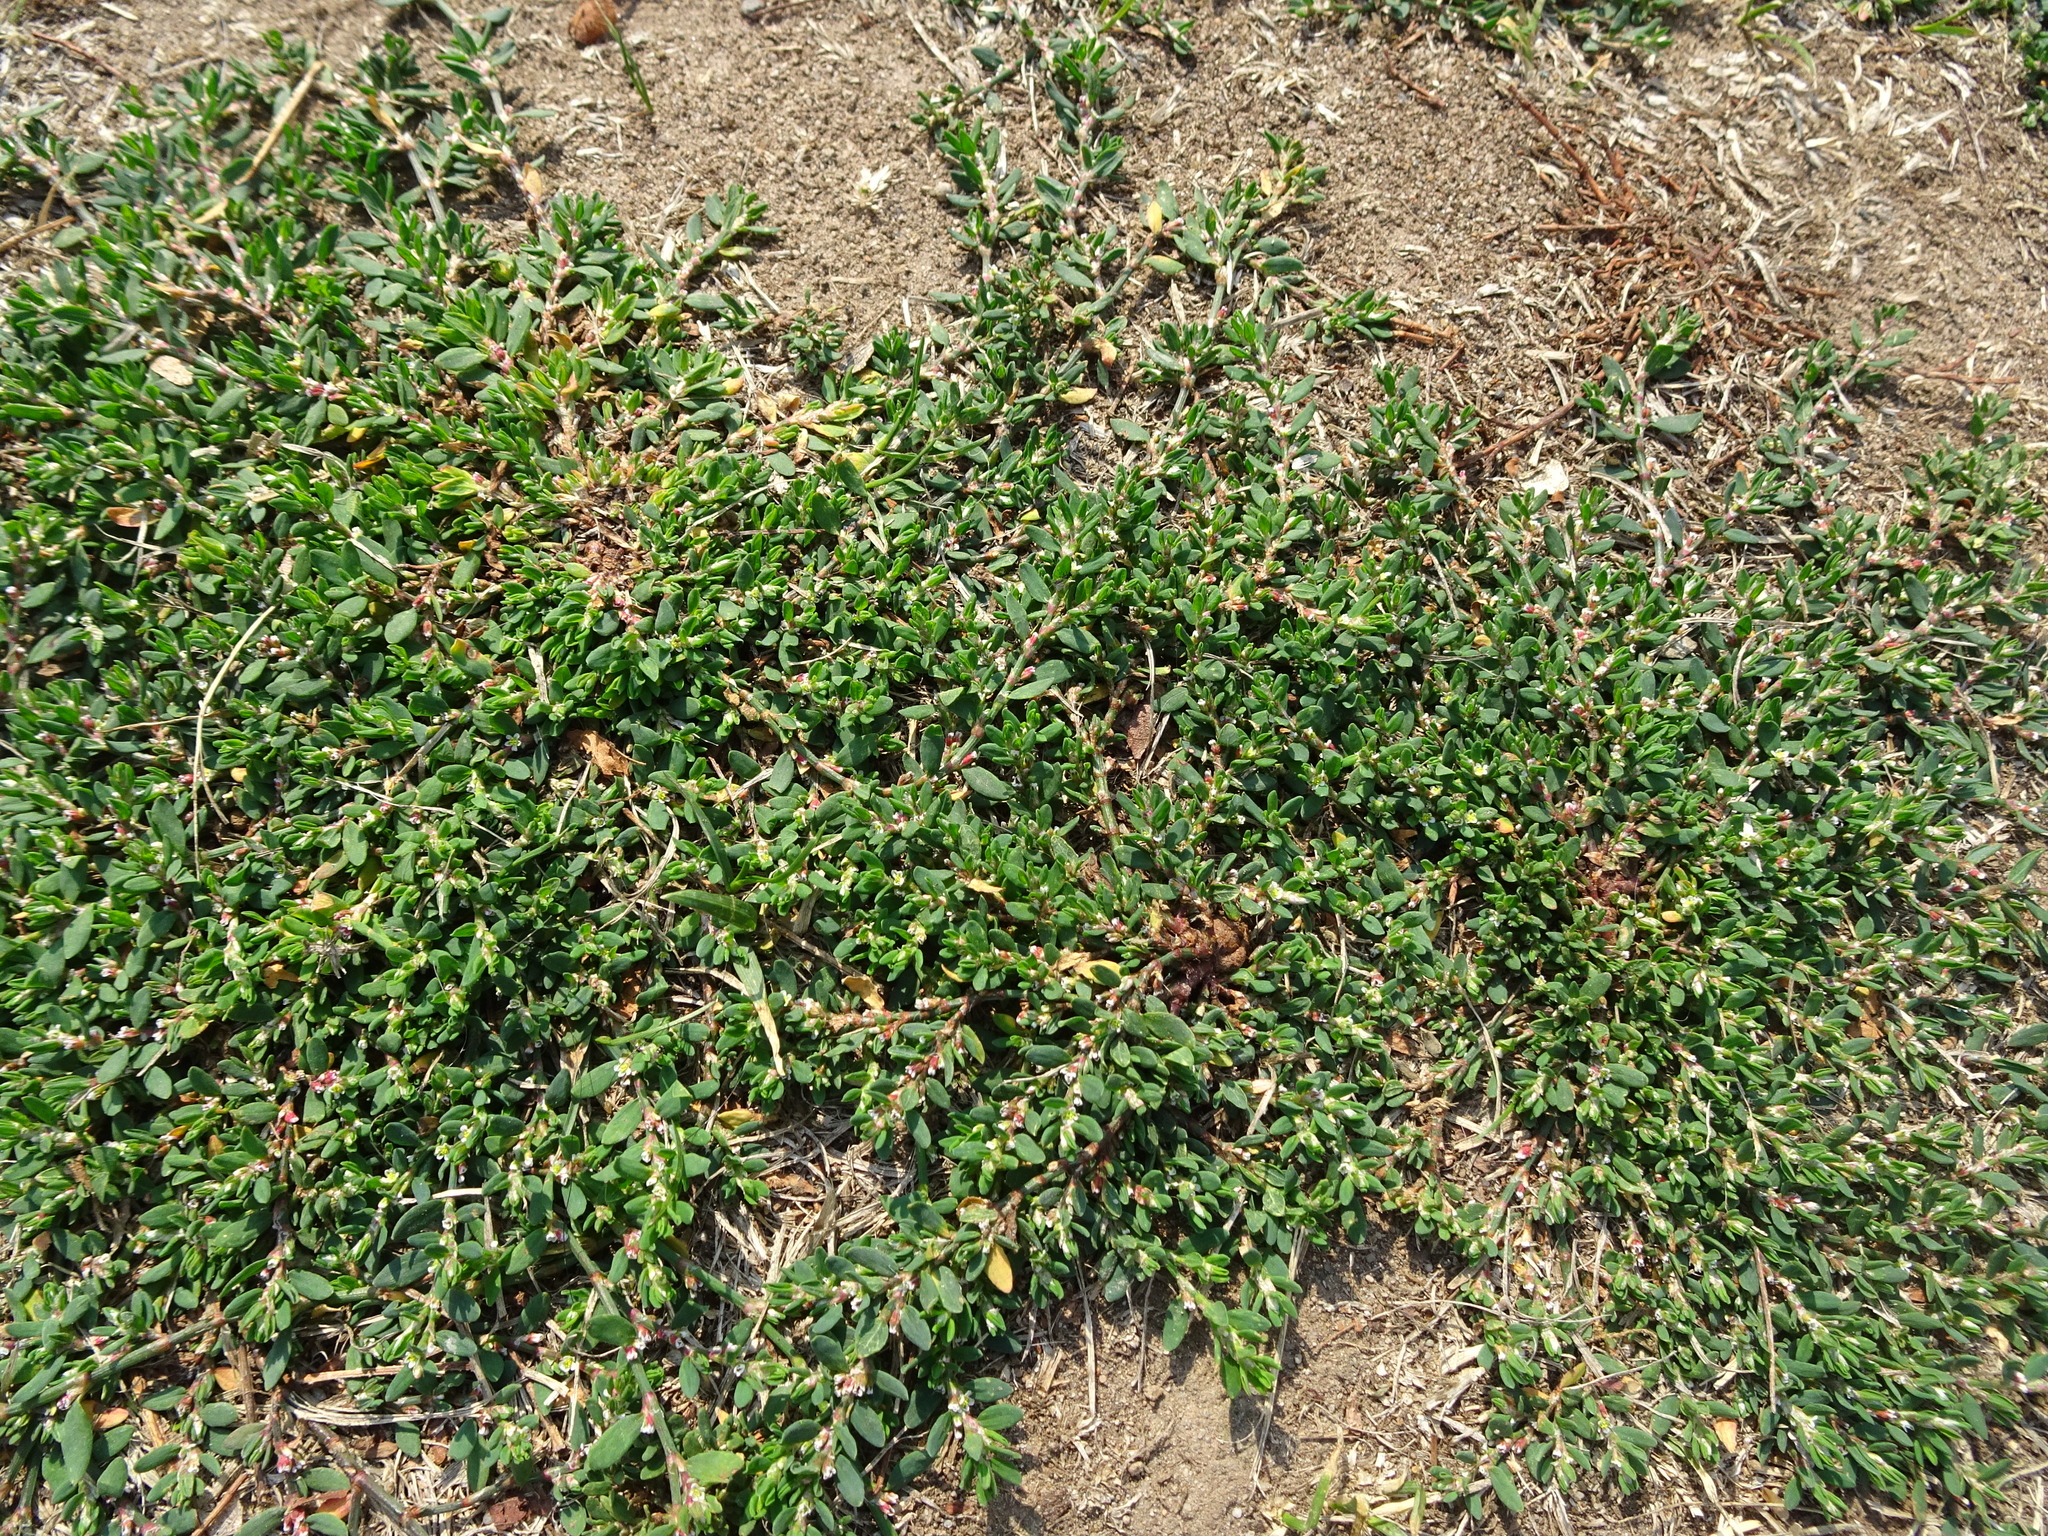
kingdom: Plantae
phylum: Tracheophyta
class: Magnoliopsida
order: Caryophyllales
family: Polygonaceae
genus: Polygonum
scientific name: Polygonum arenastrum
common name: Equal-leaved knotgrass
